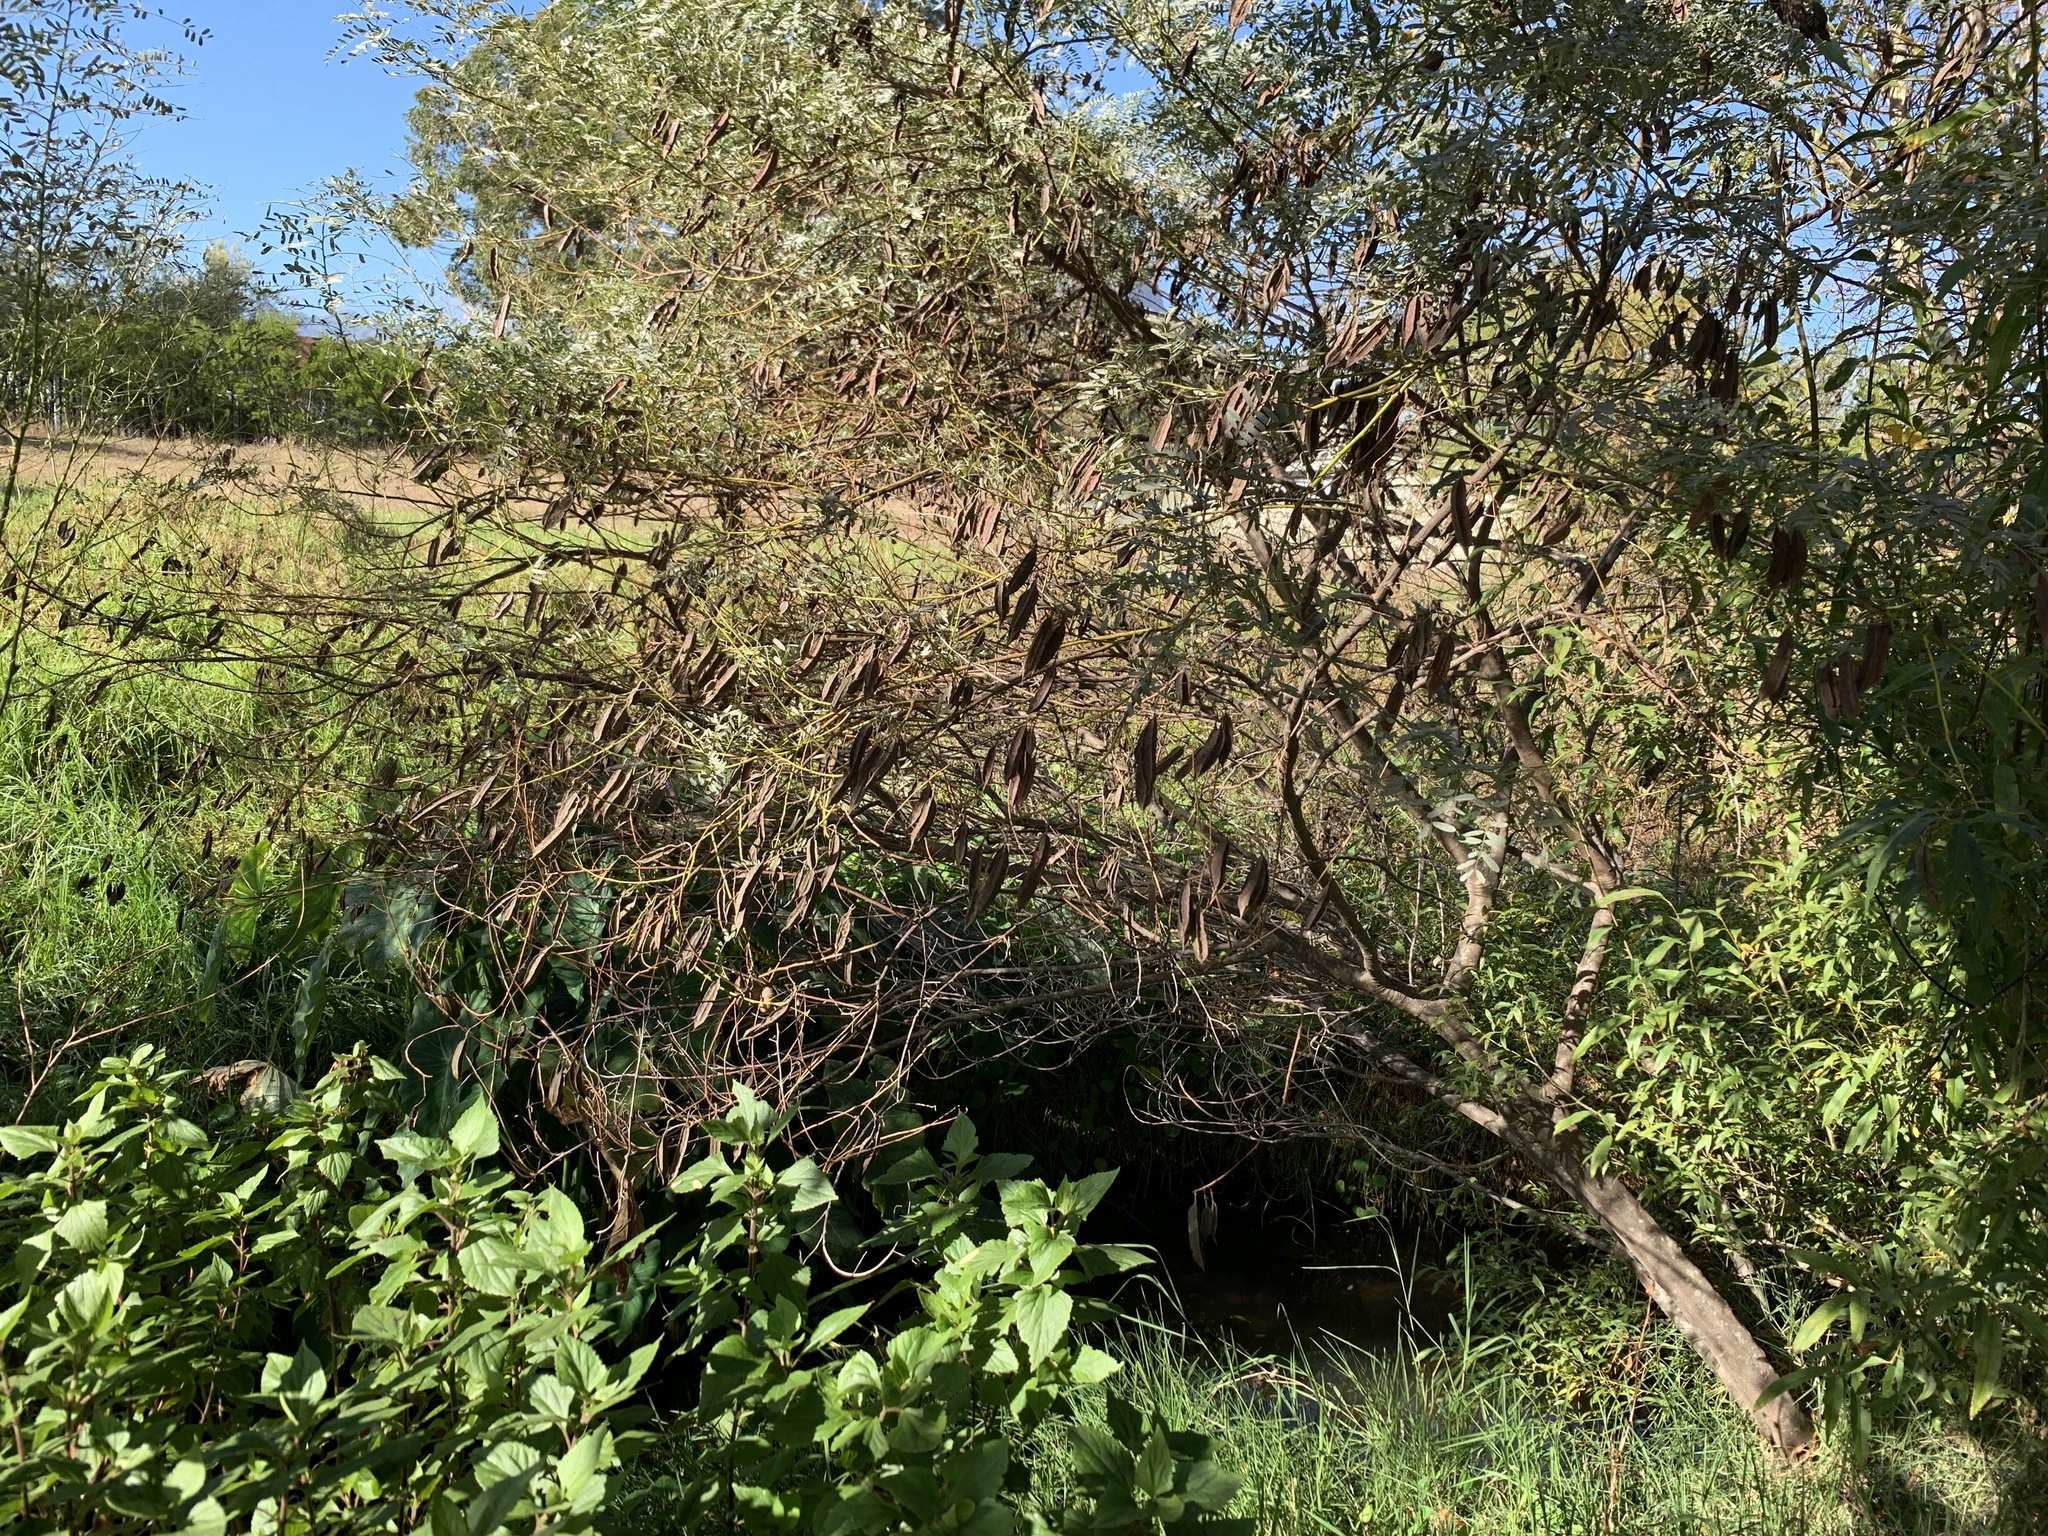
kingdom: Plantae
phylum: Tracheophyta
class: Magnoliopsida
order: Fabales
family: Fabaceae
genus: Sesbania
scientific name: Sesbania punicea
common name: Rattlebox
